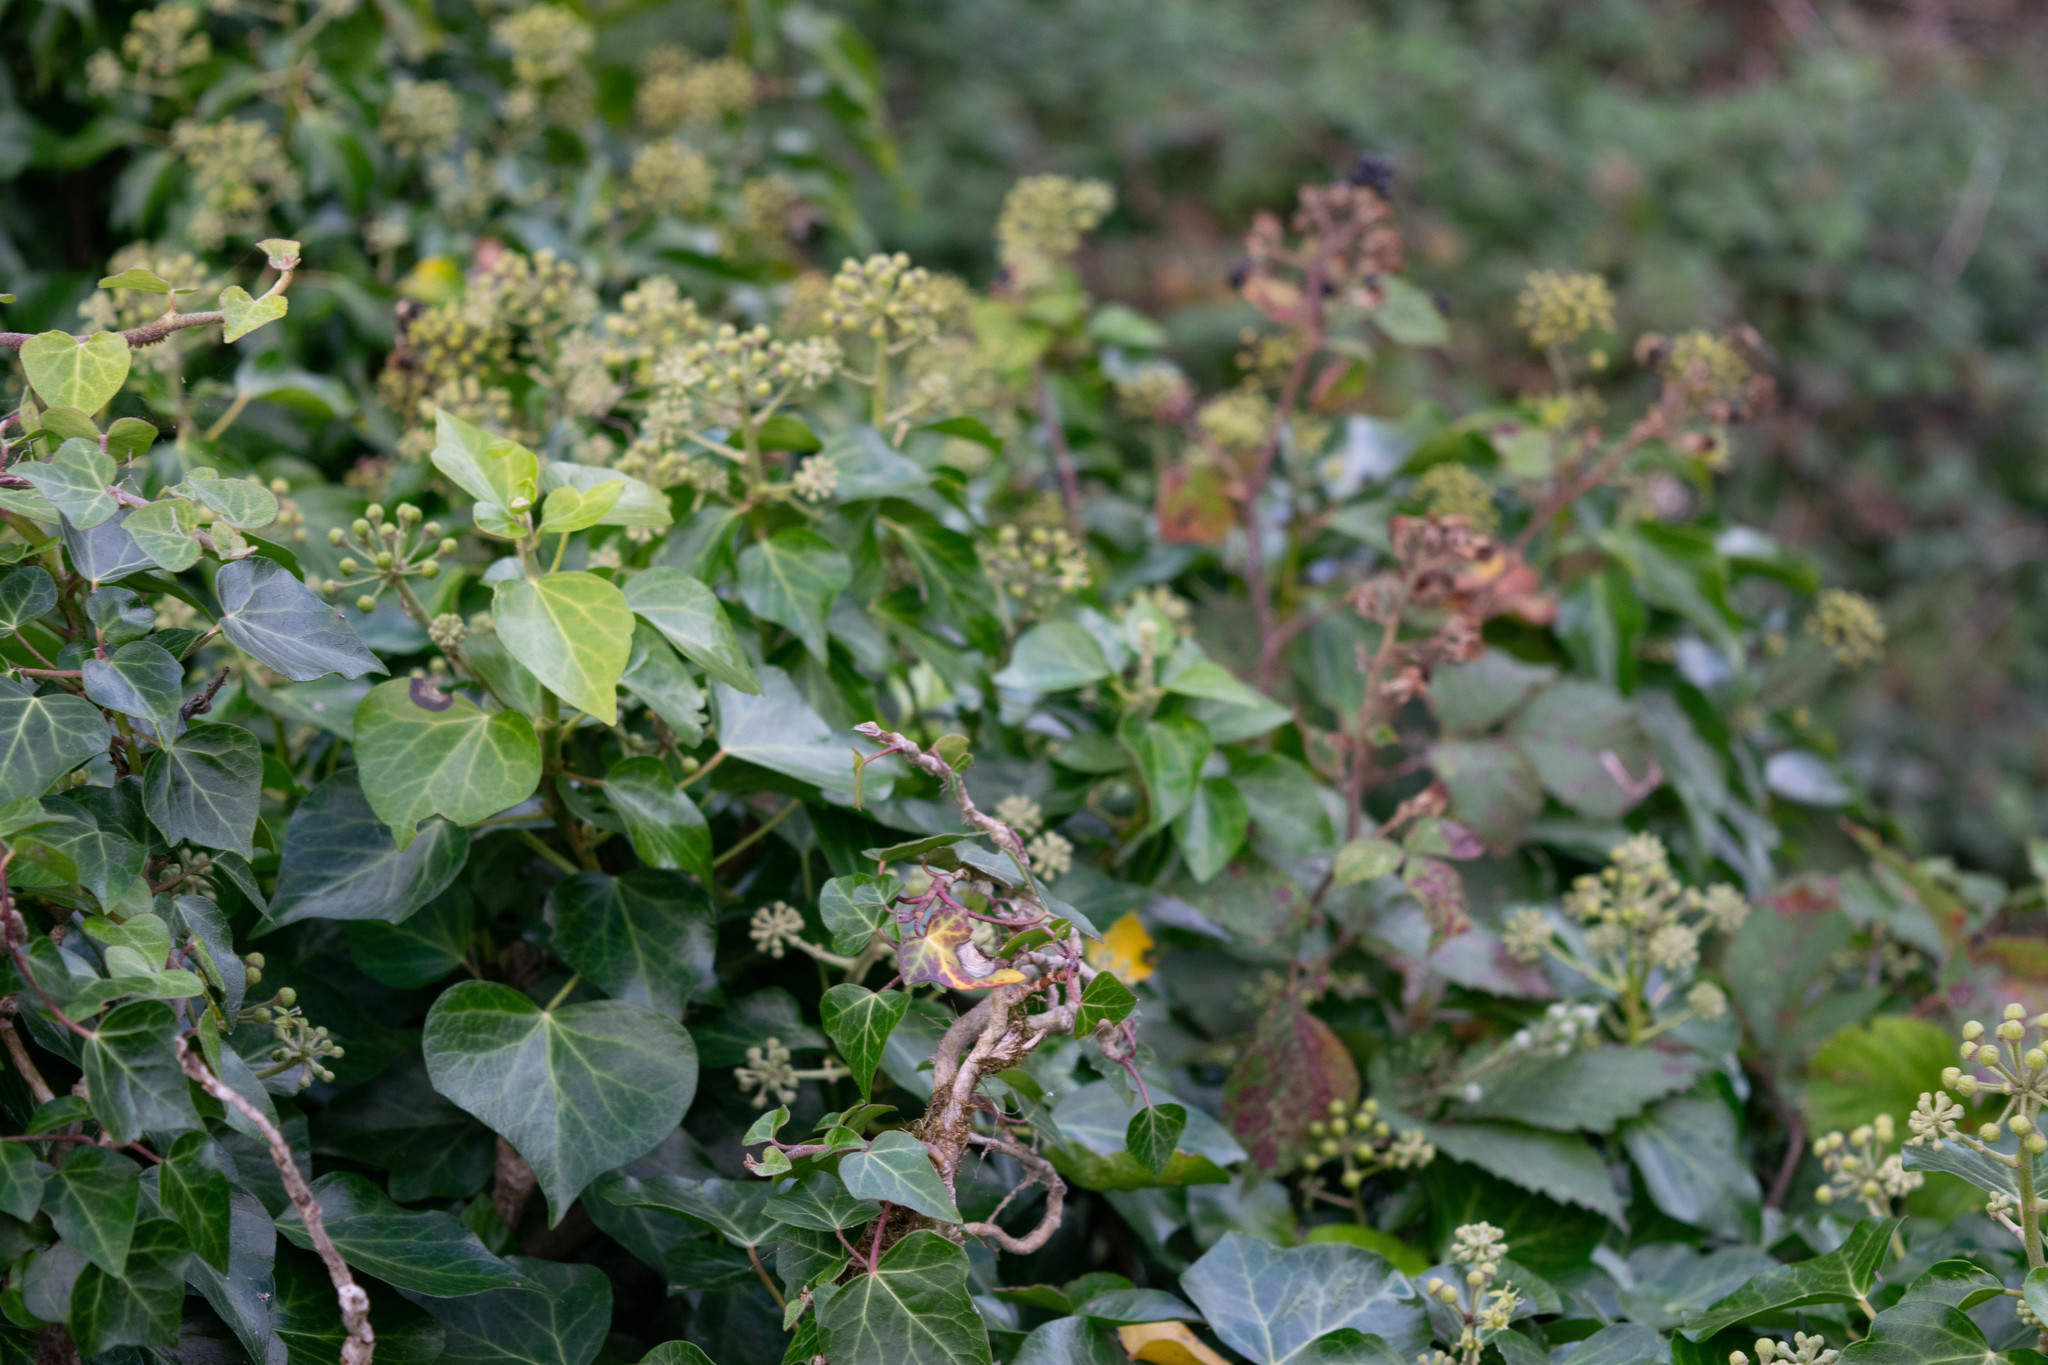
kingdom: Plantae
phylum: Tracheophyta
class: Magnoliopsida
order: Apiales
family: Araliaceae
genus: Hedera
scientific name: Hedera hibernica
